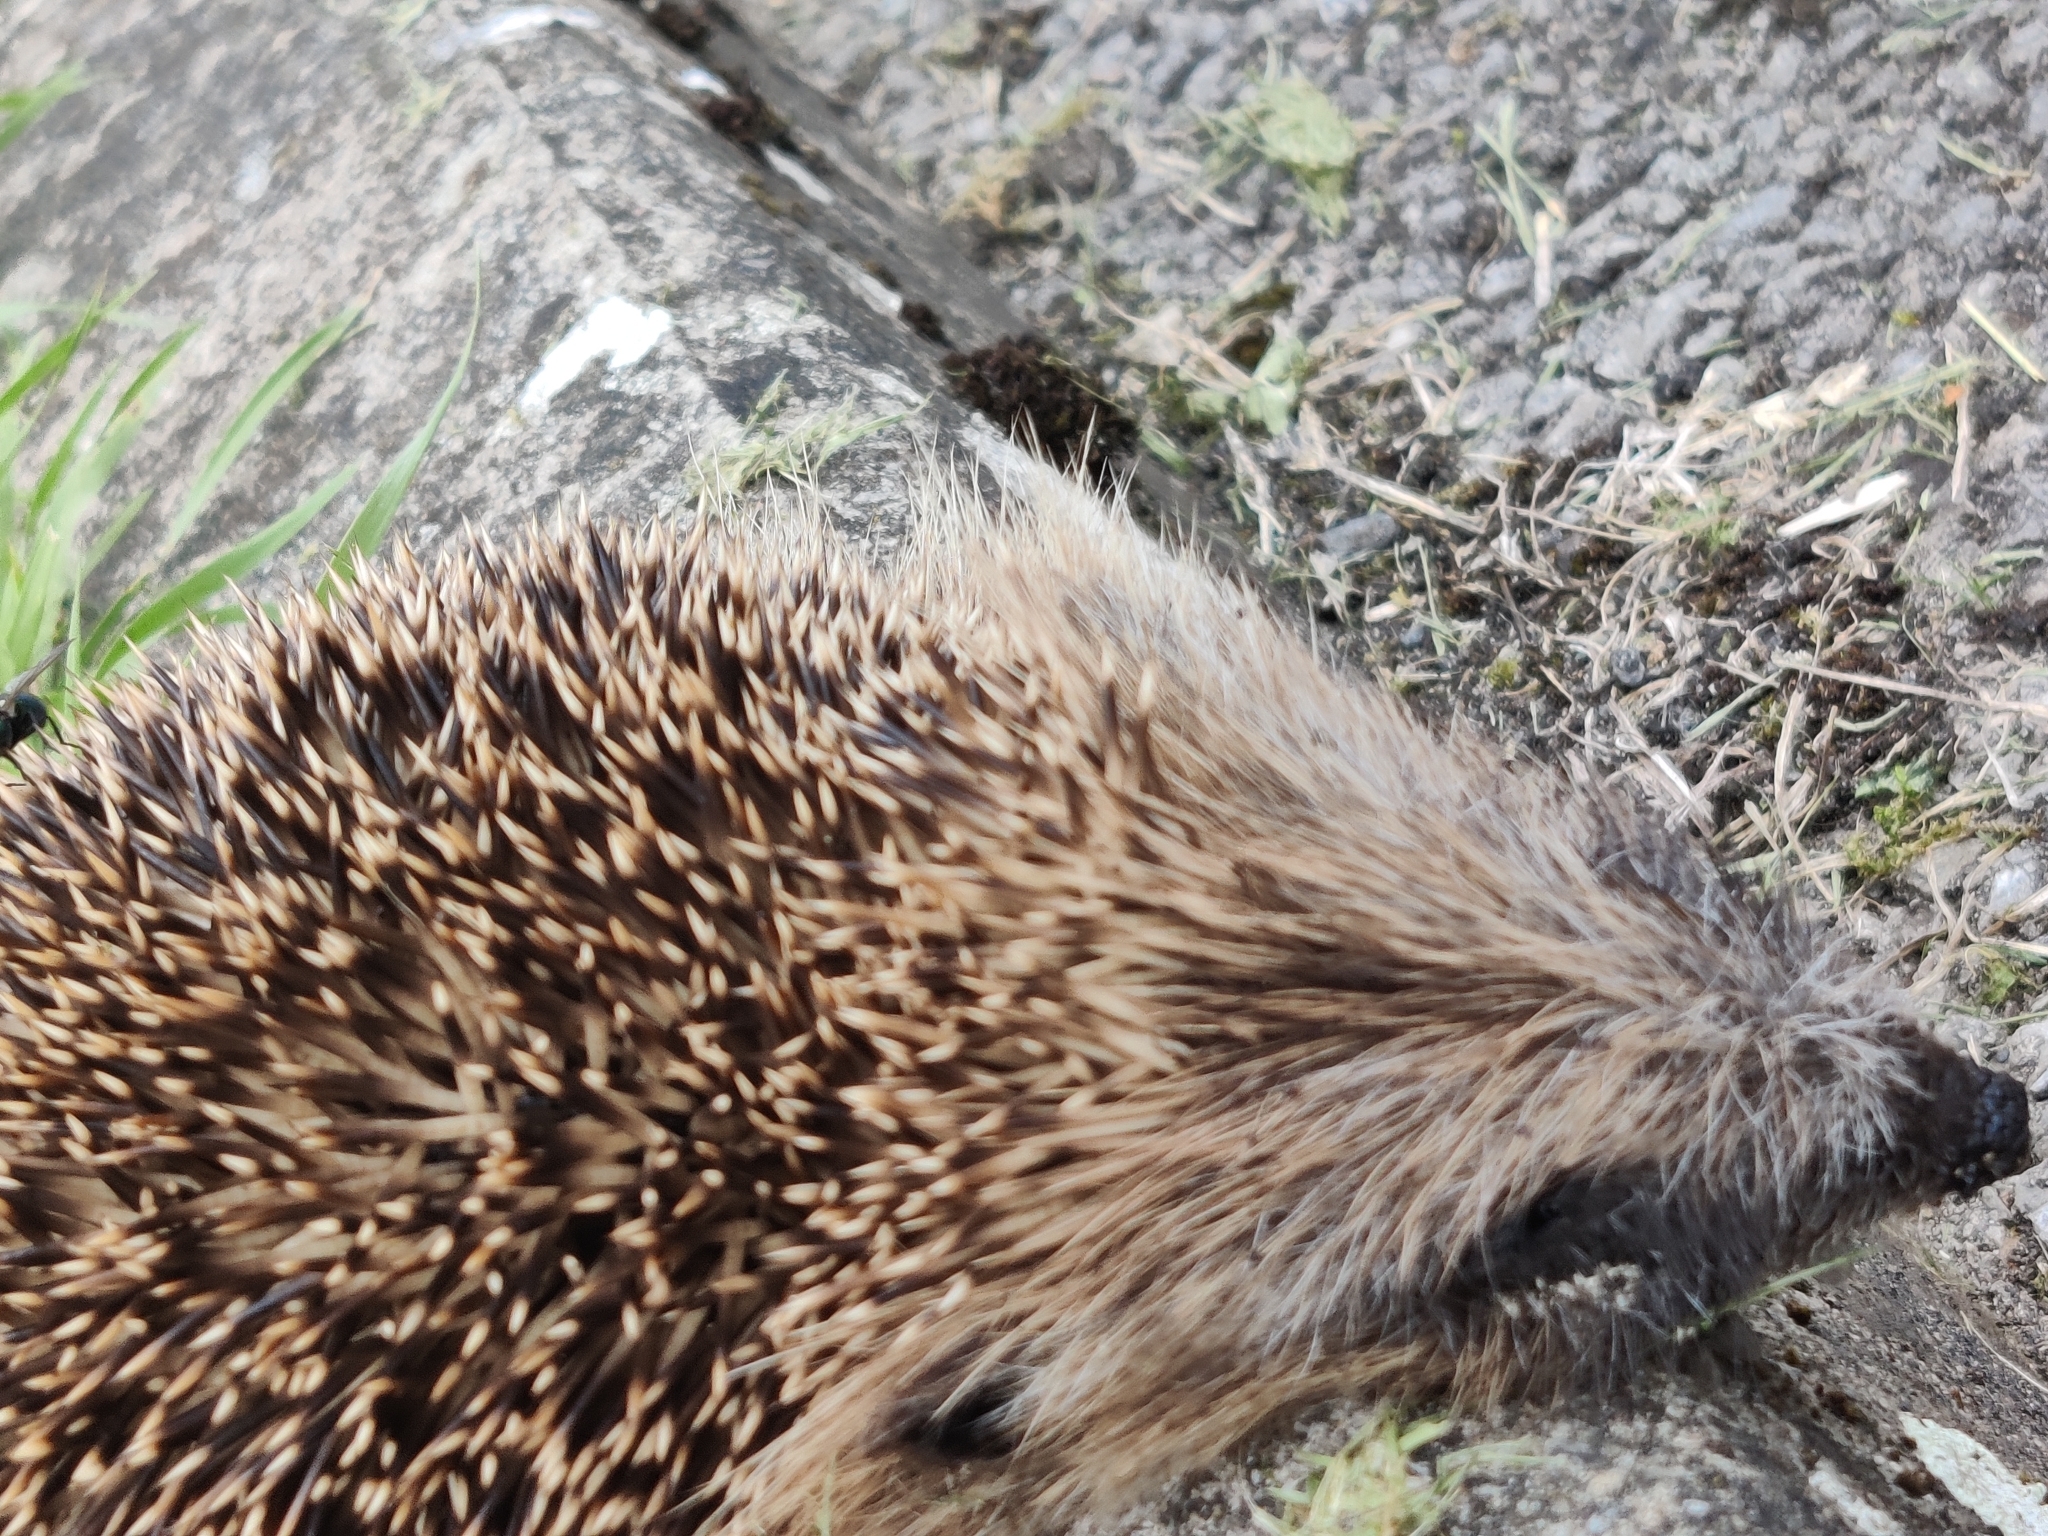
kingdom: Animalia
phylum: Chordata
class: Mammalia
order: Erinaceomorpha
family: Erinaceidae
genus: Erinaceus
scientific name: Erinaceus europaeus
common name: West european hedgehog
